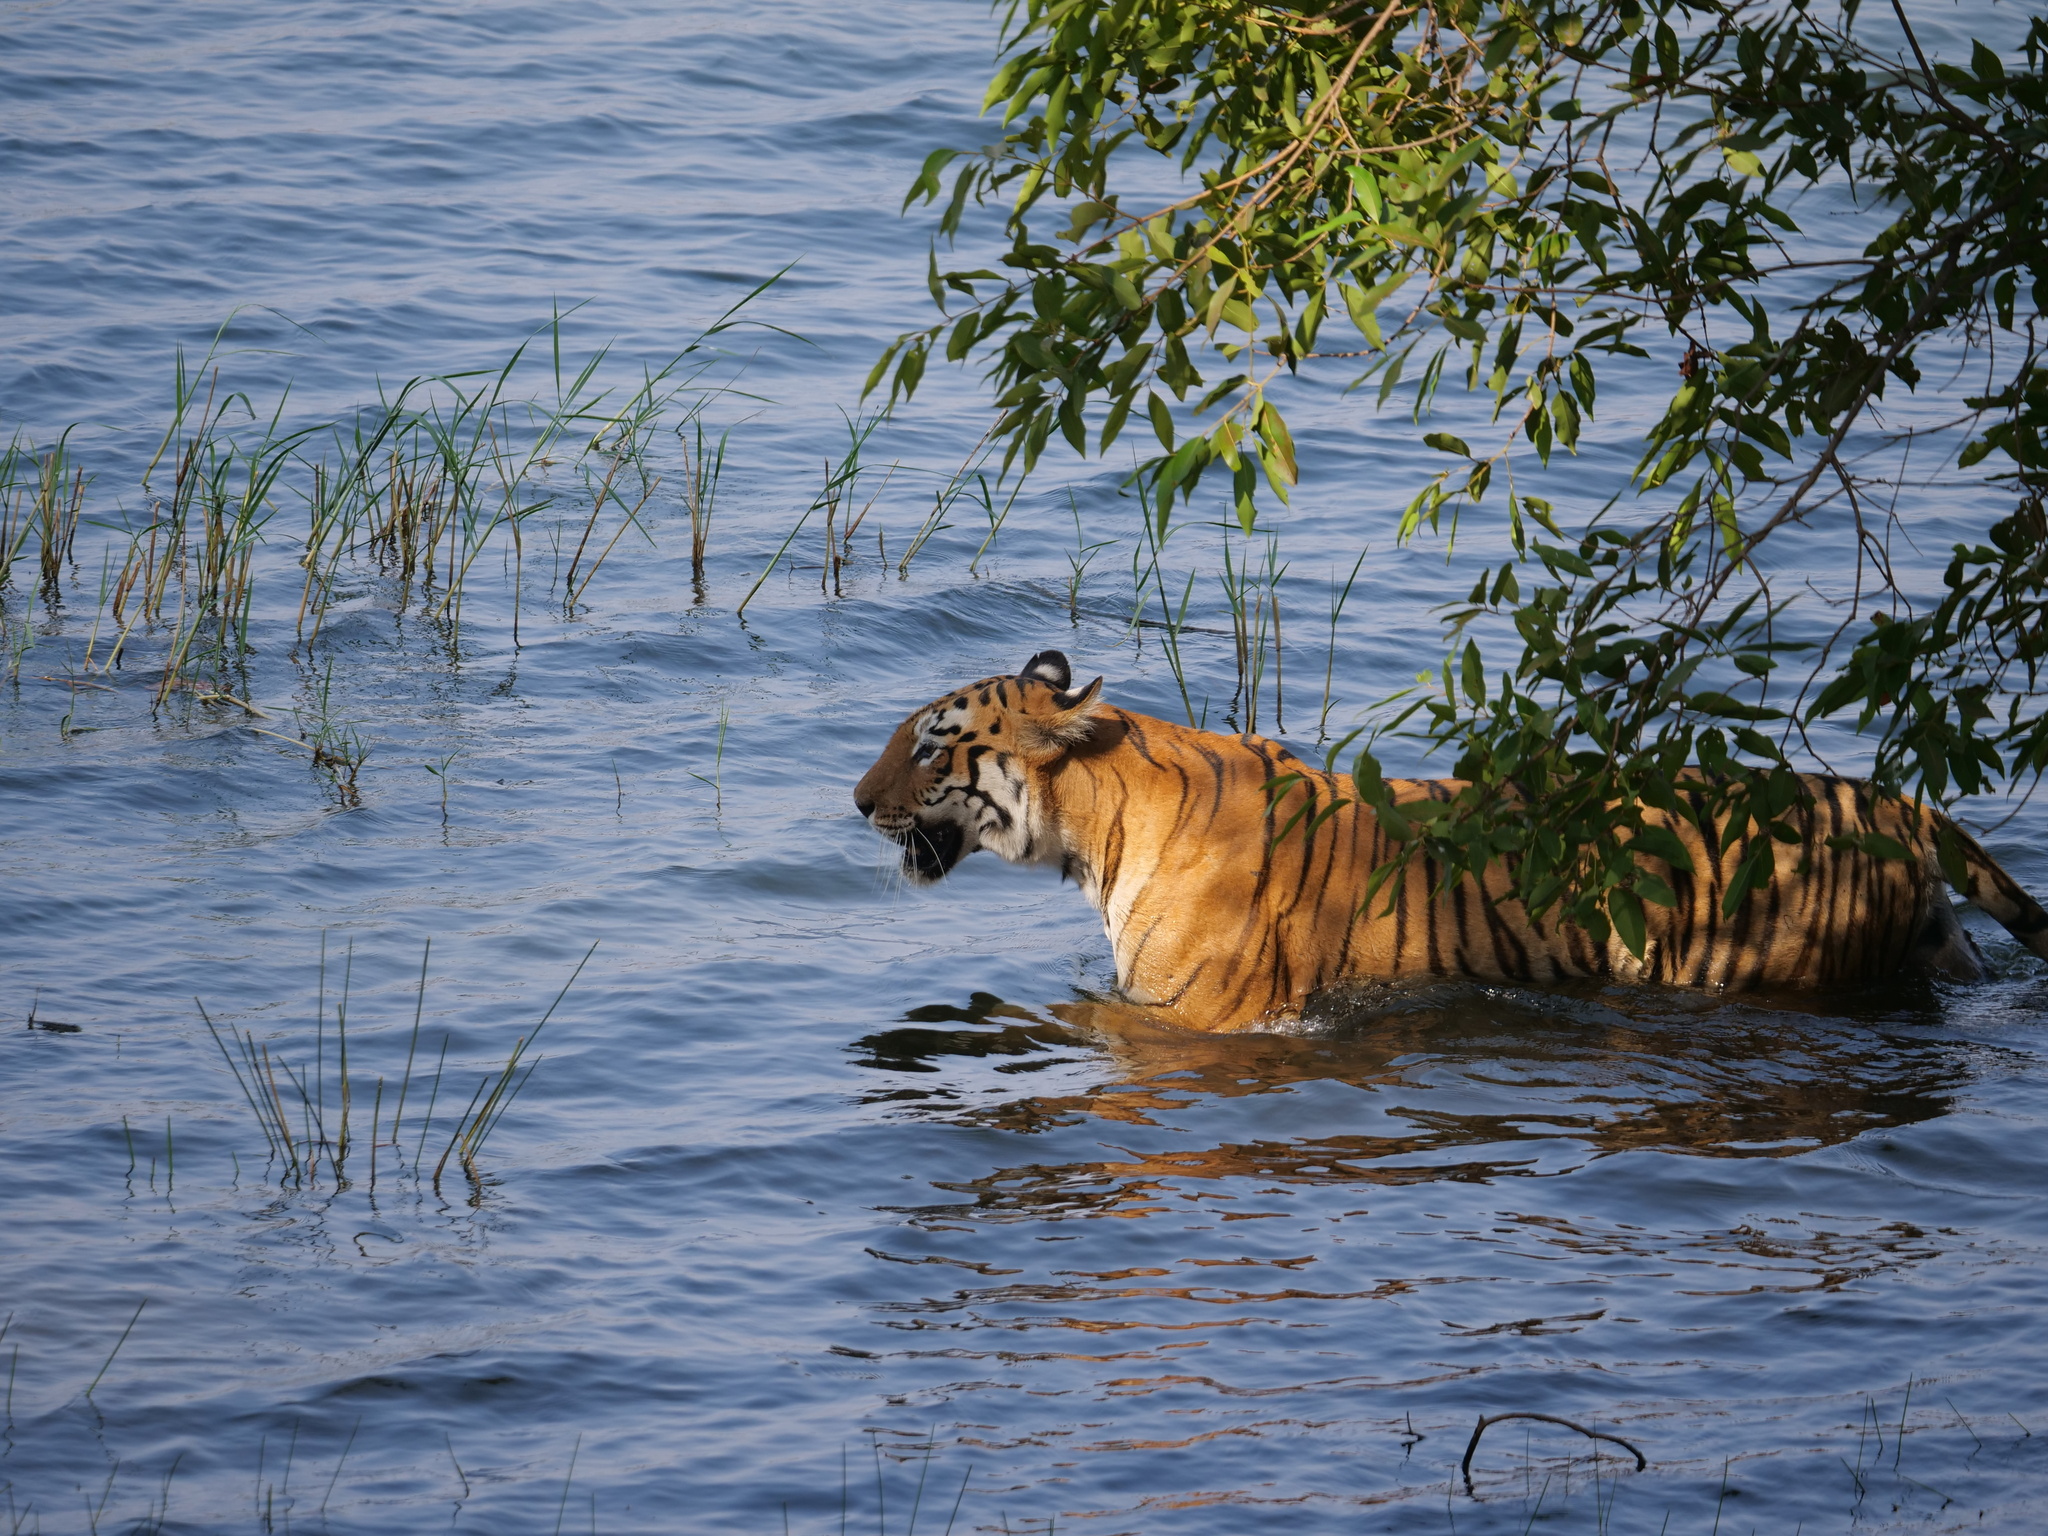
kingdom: Animalia
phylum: Chordata
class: Mammalia
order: Carnivora
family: Felidae
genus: Panthera
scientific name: Panthera tigris
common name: Tiger
